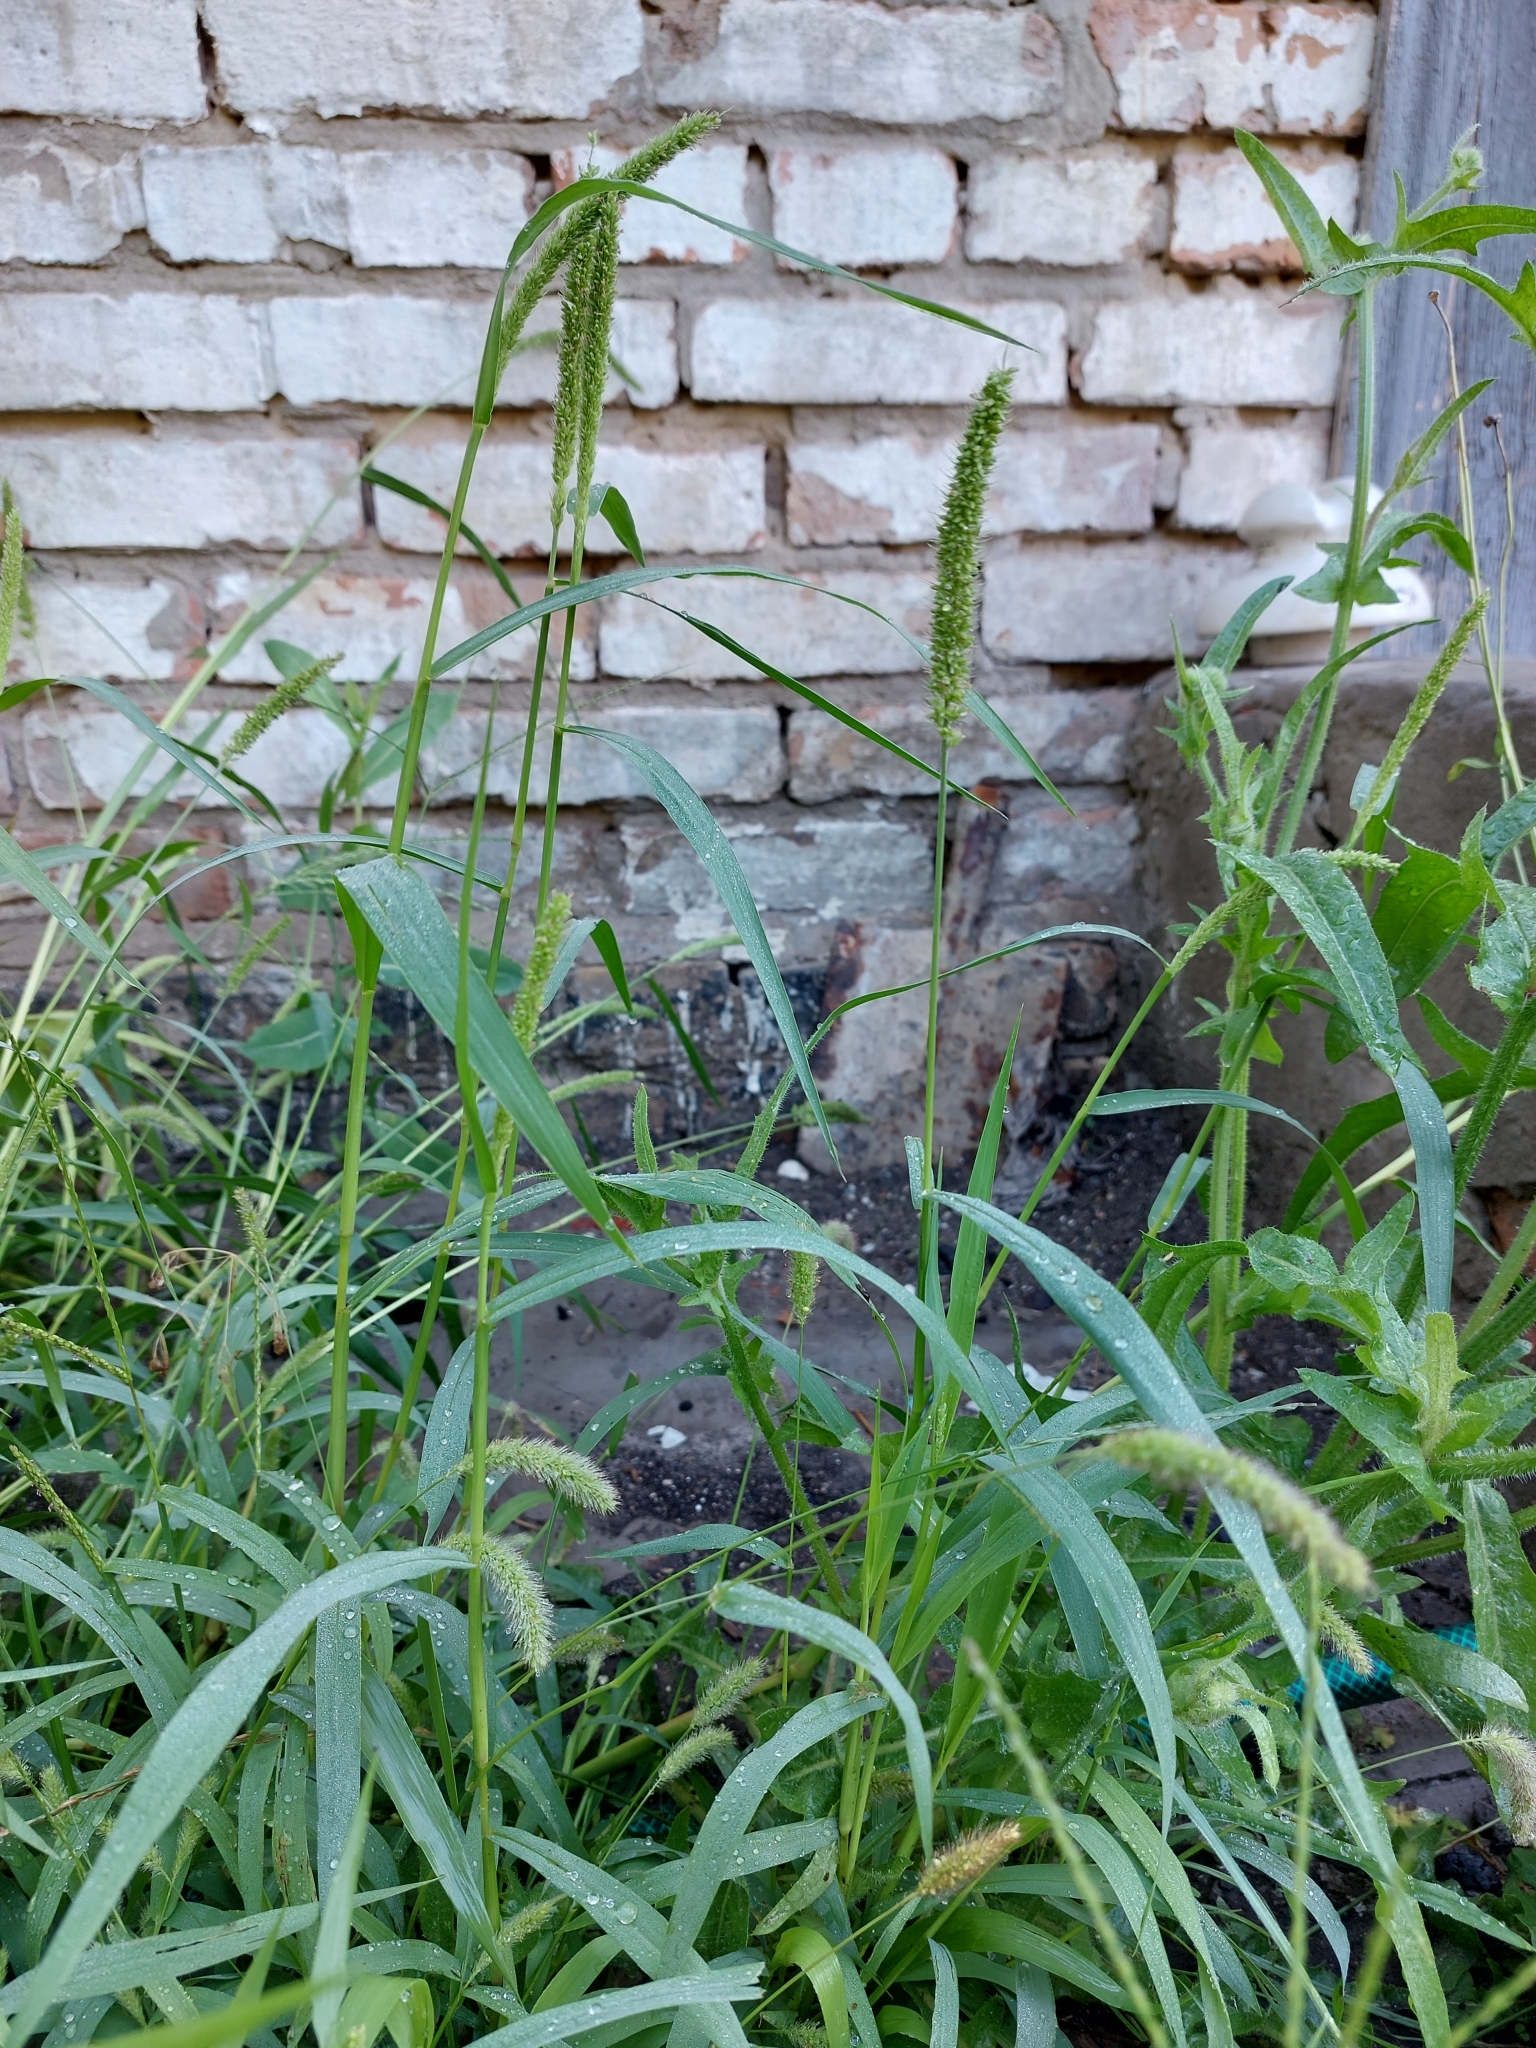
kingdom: Plantae
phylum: Tracheophyta
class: Liliopsida
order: Poales
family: Poaceae
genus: Setaria
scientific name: Setaria verticillata
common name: Hooked bristlegrass
